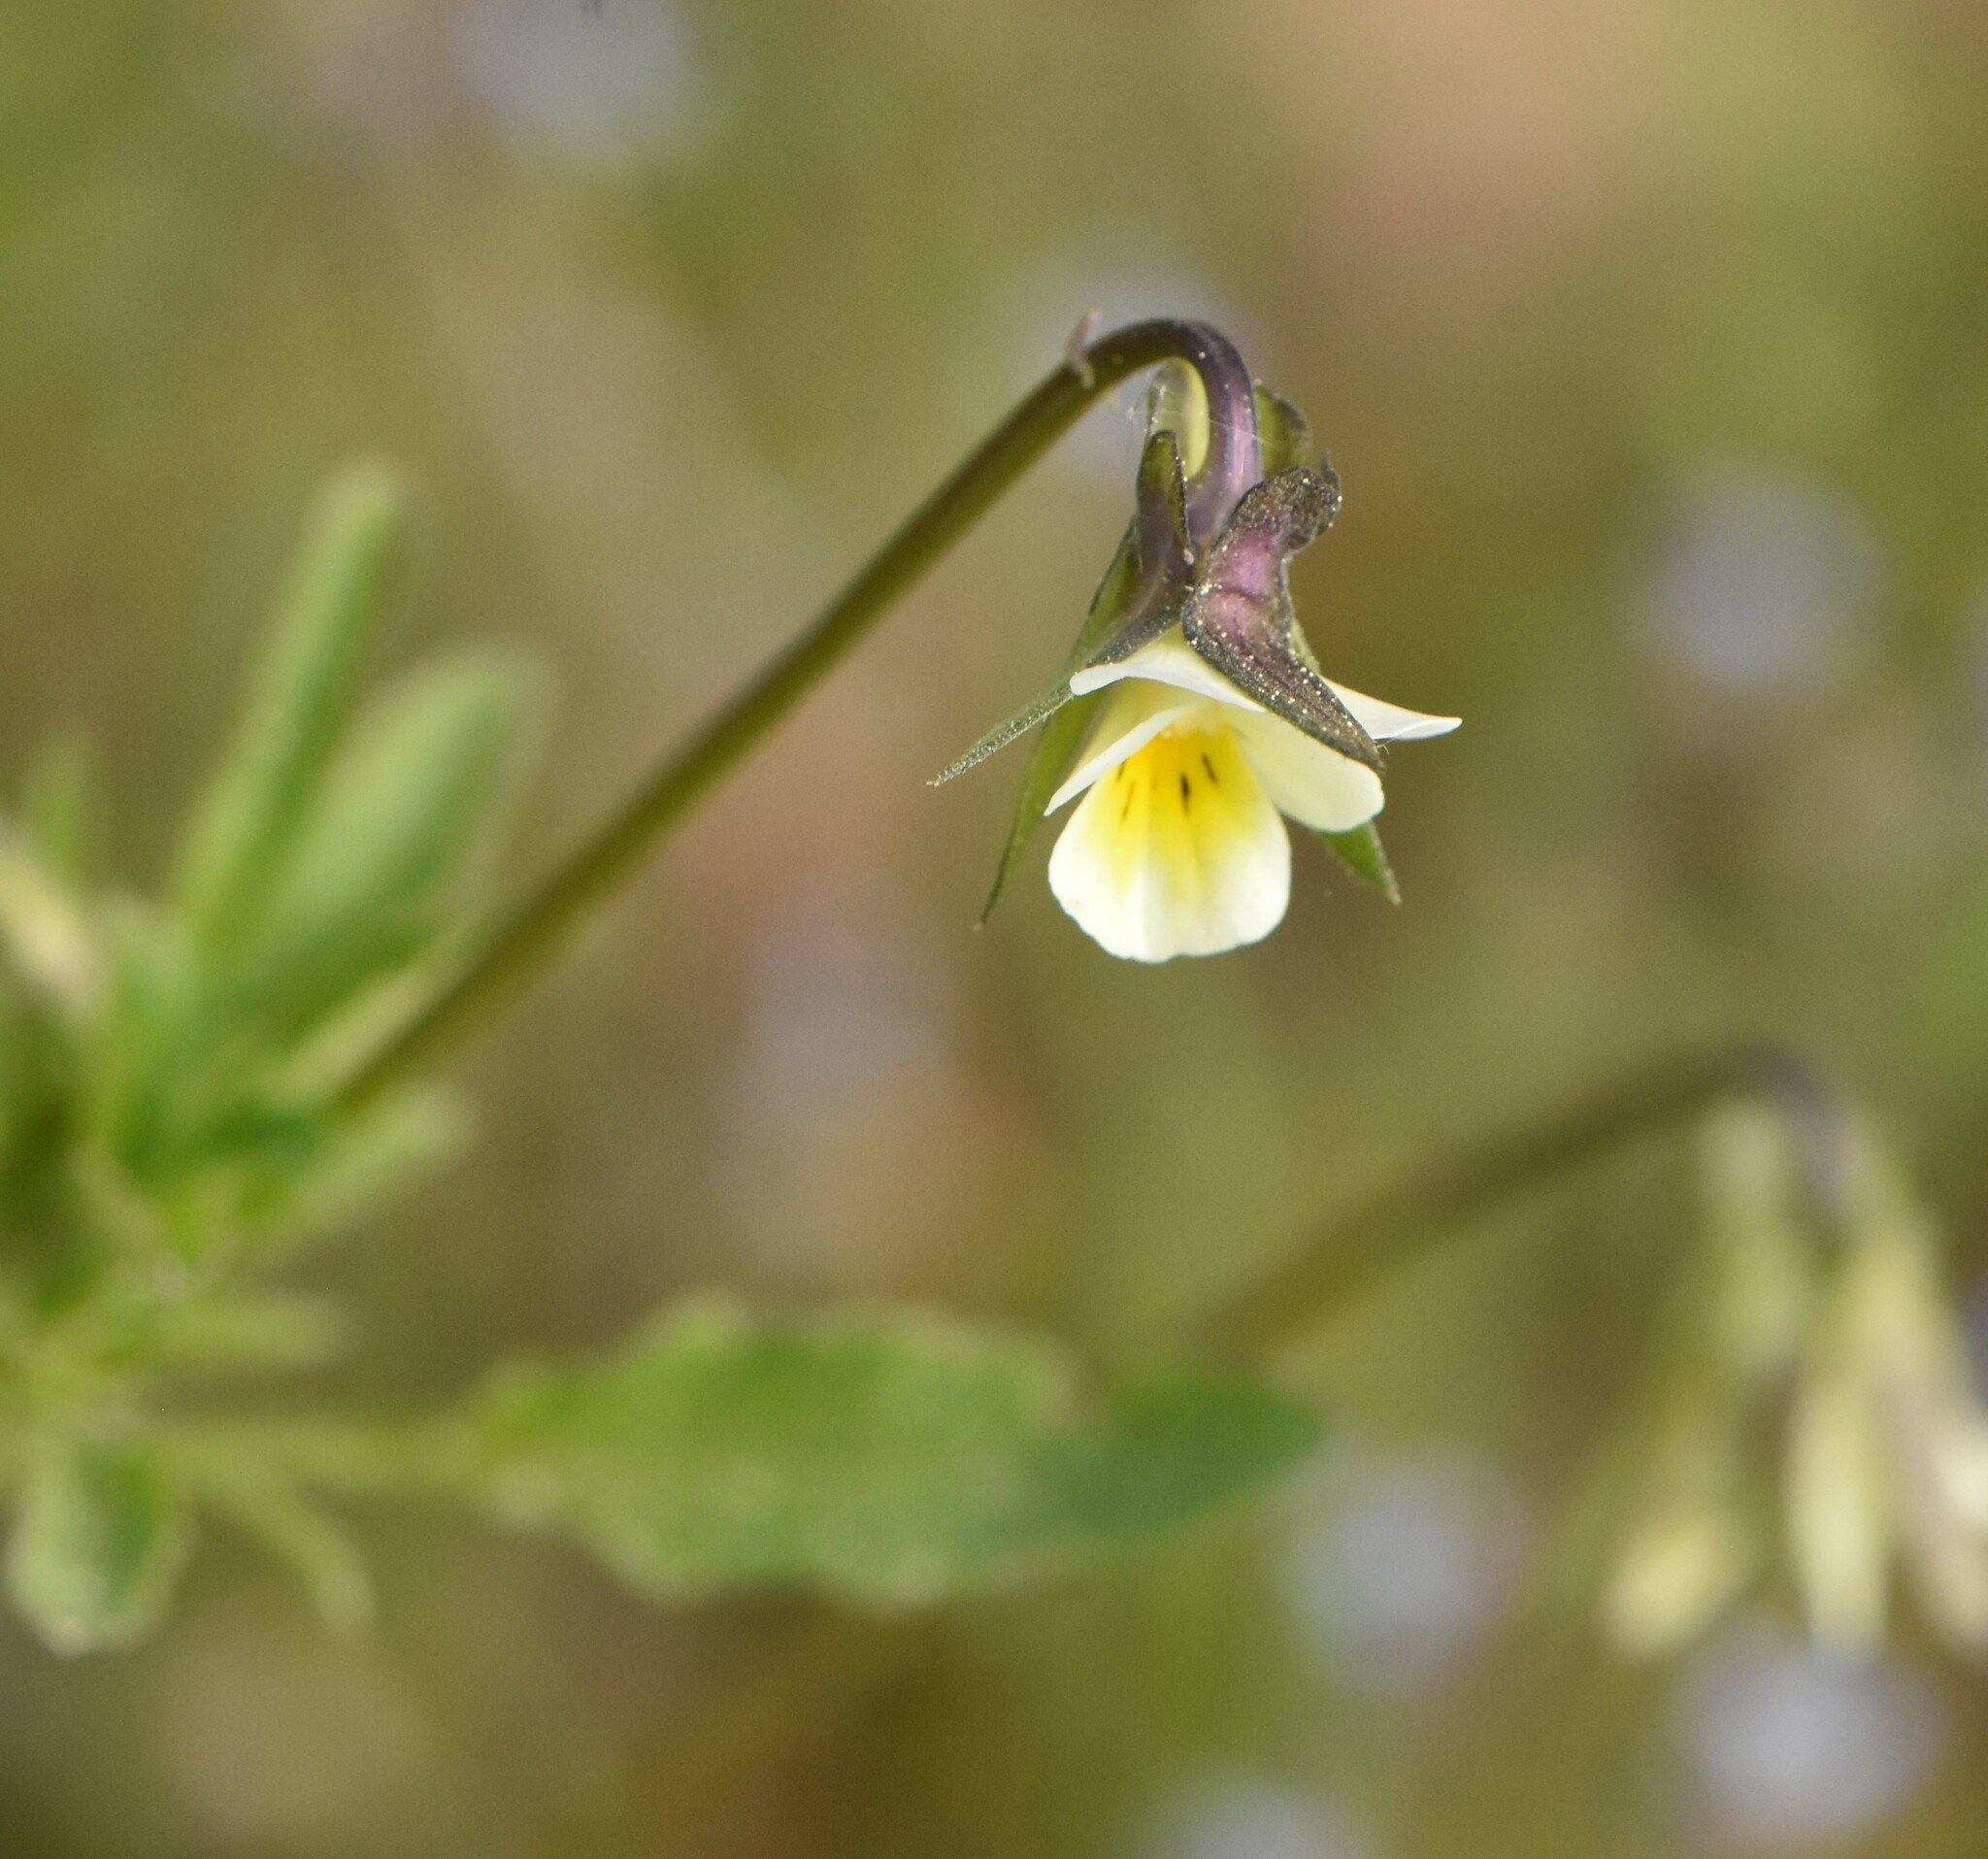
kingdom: Plantae
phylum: Tracheophyta
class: Magnoliopsida
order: Malpighiales
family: Violaceae
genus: Viola
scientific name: Viola arvensis
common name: Field pansy
